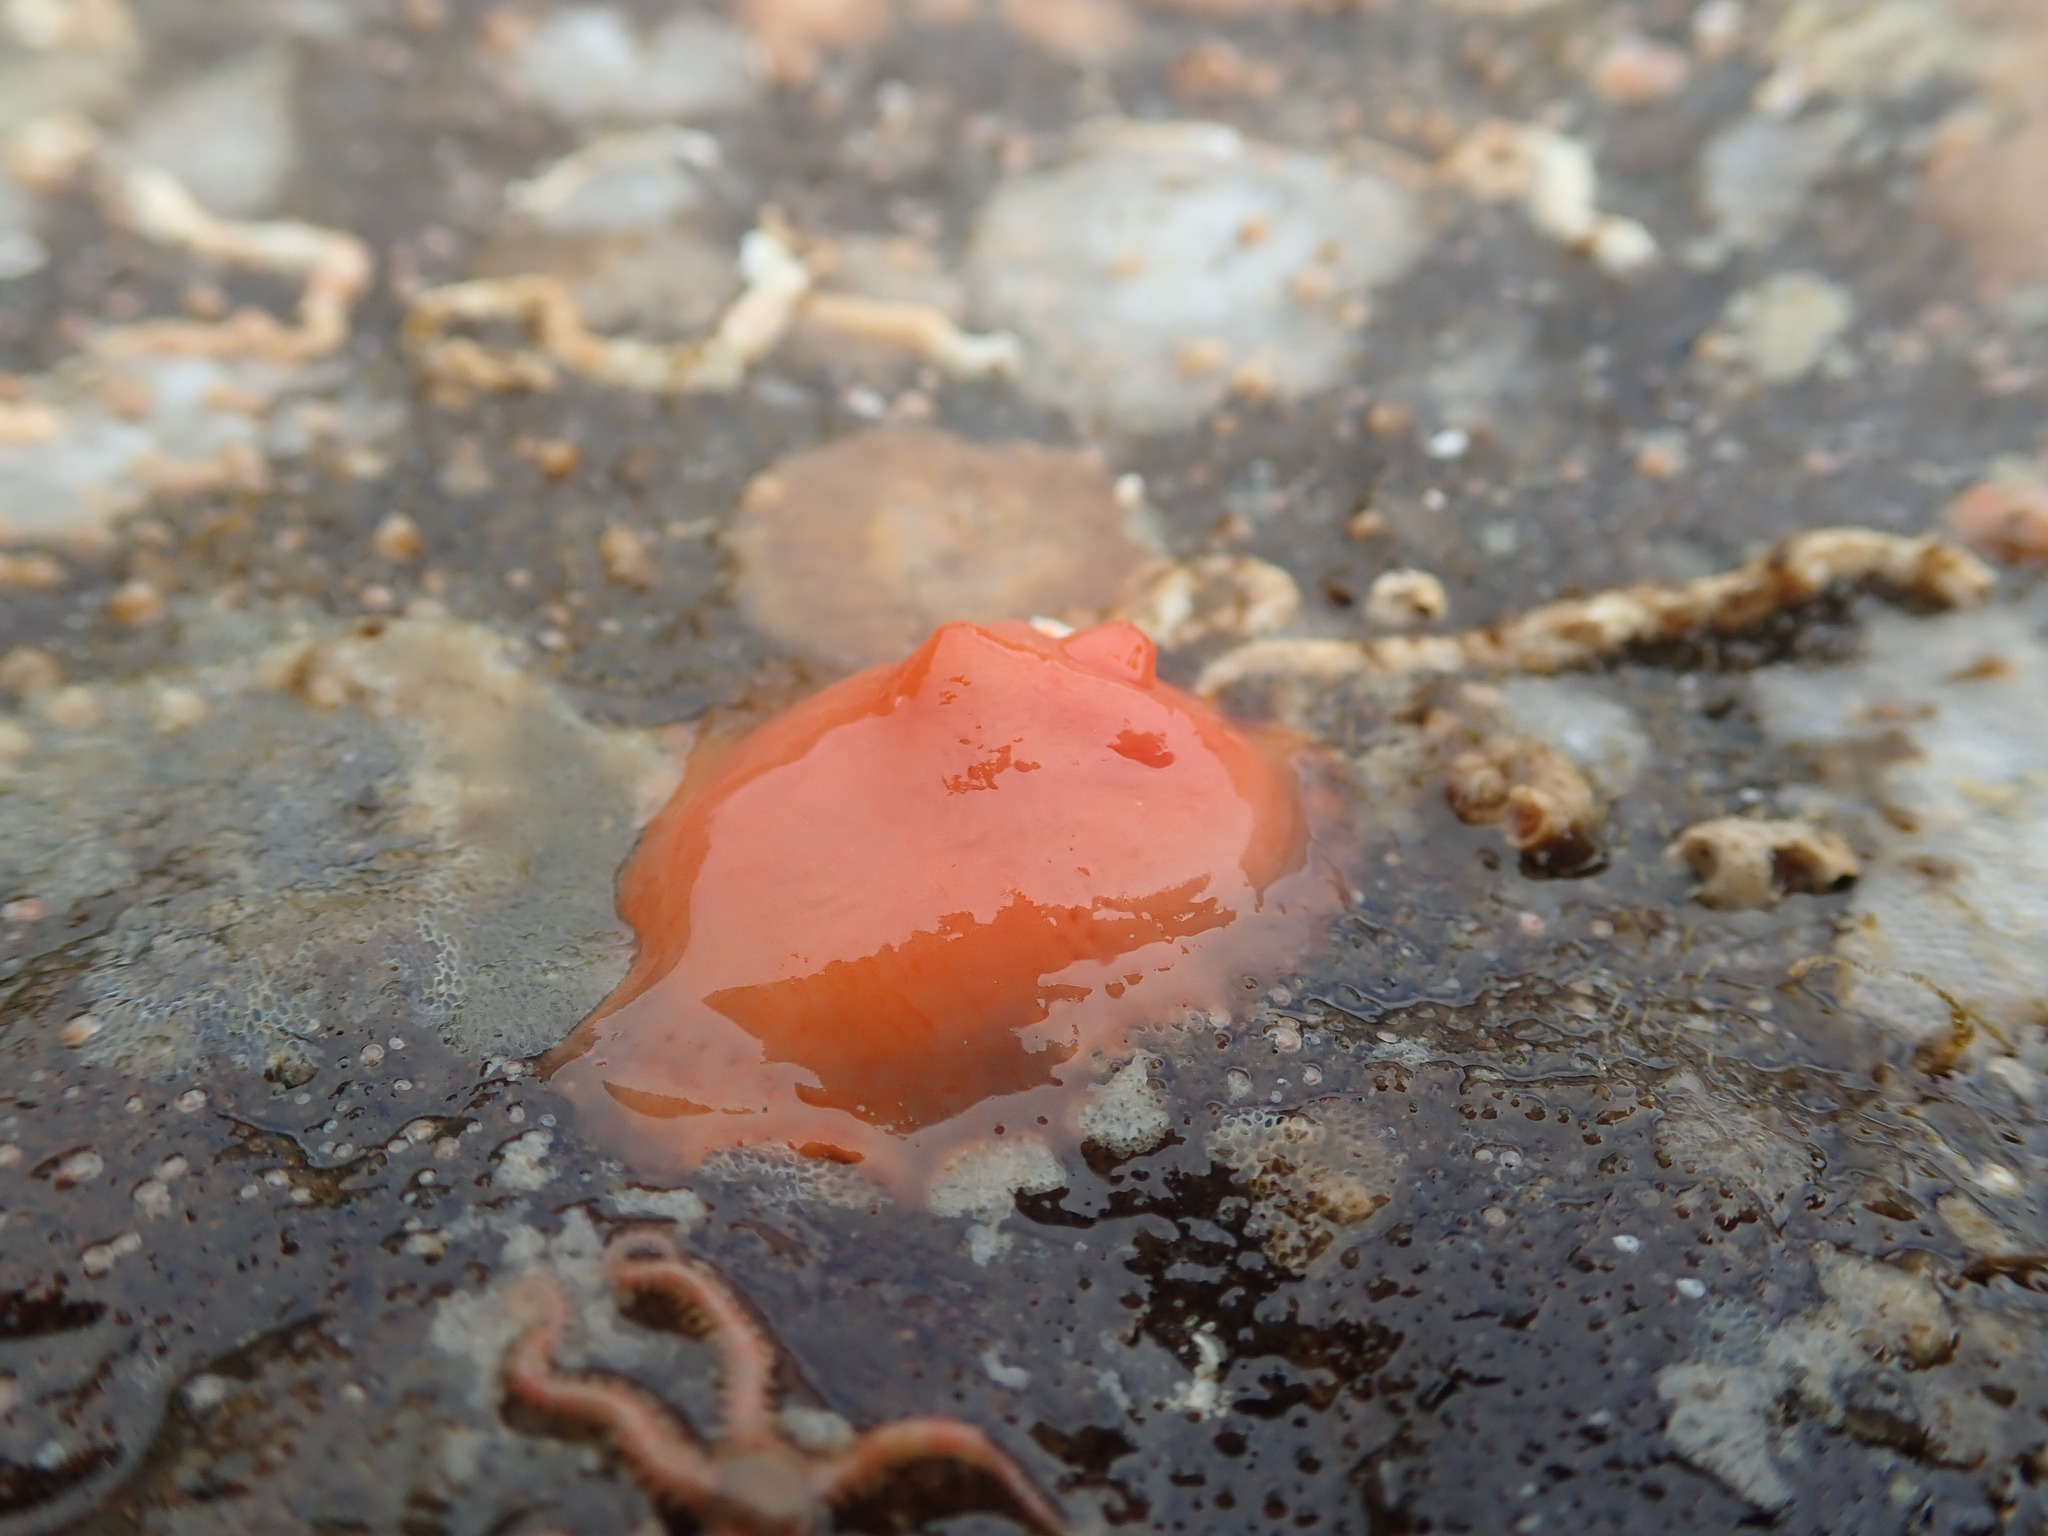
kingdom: Animalia
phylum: Chordata
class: Ascidiacea
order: Stolidobranchia
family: Styelidae
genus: Cnemidocarpa
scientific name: Cnemidocarpa finmarkiensis
